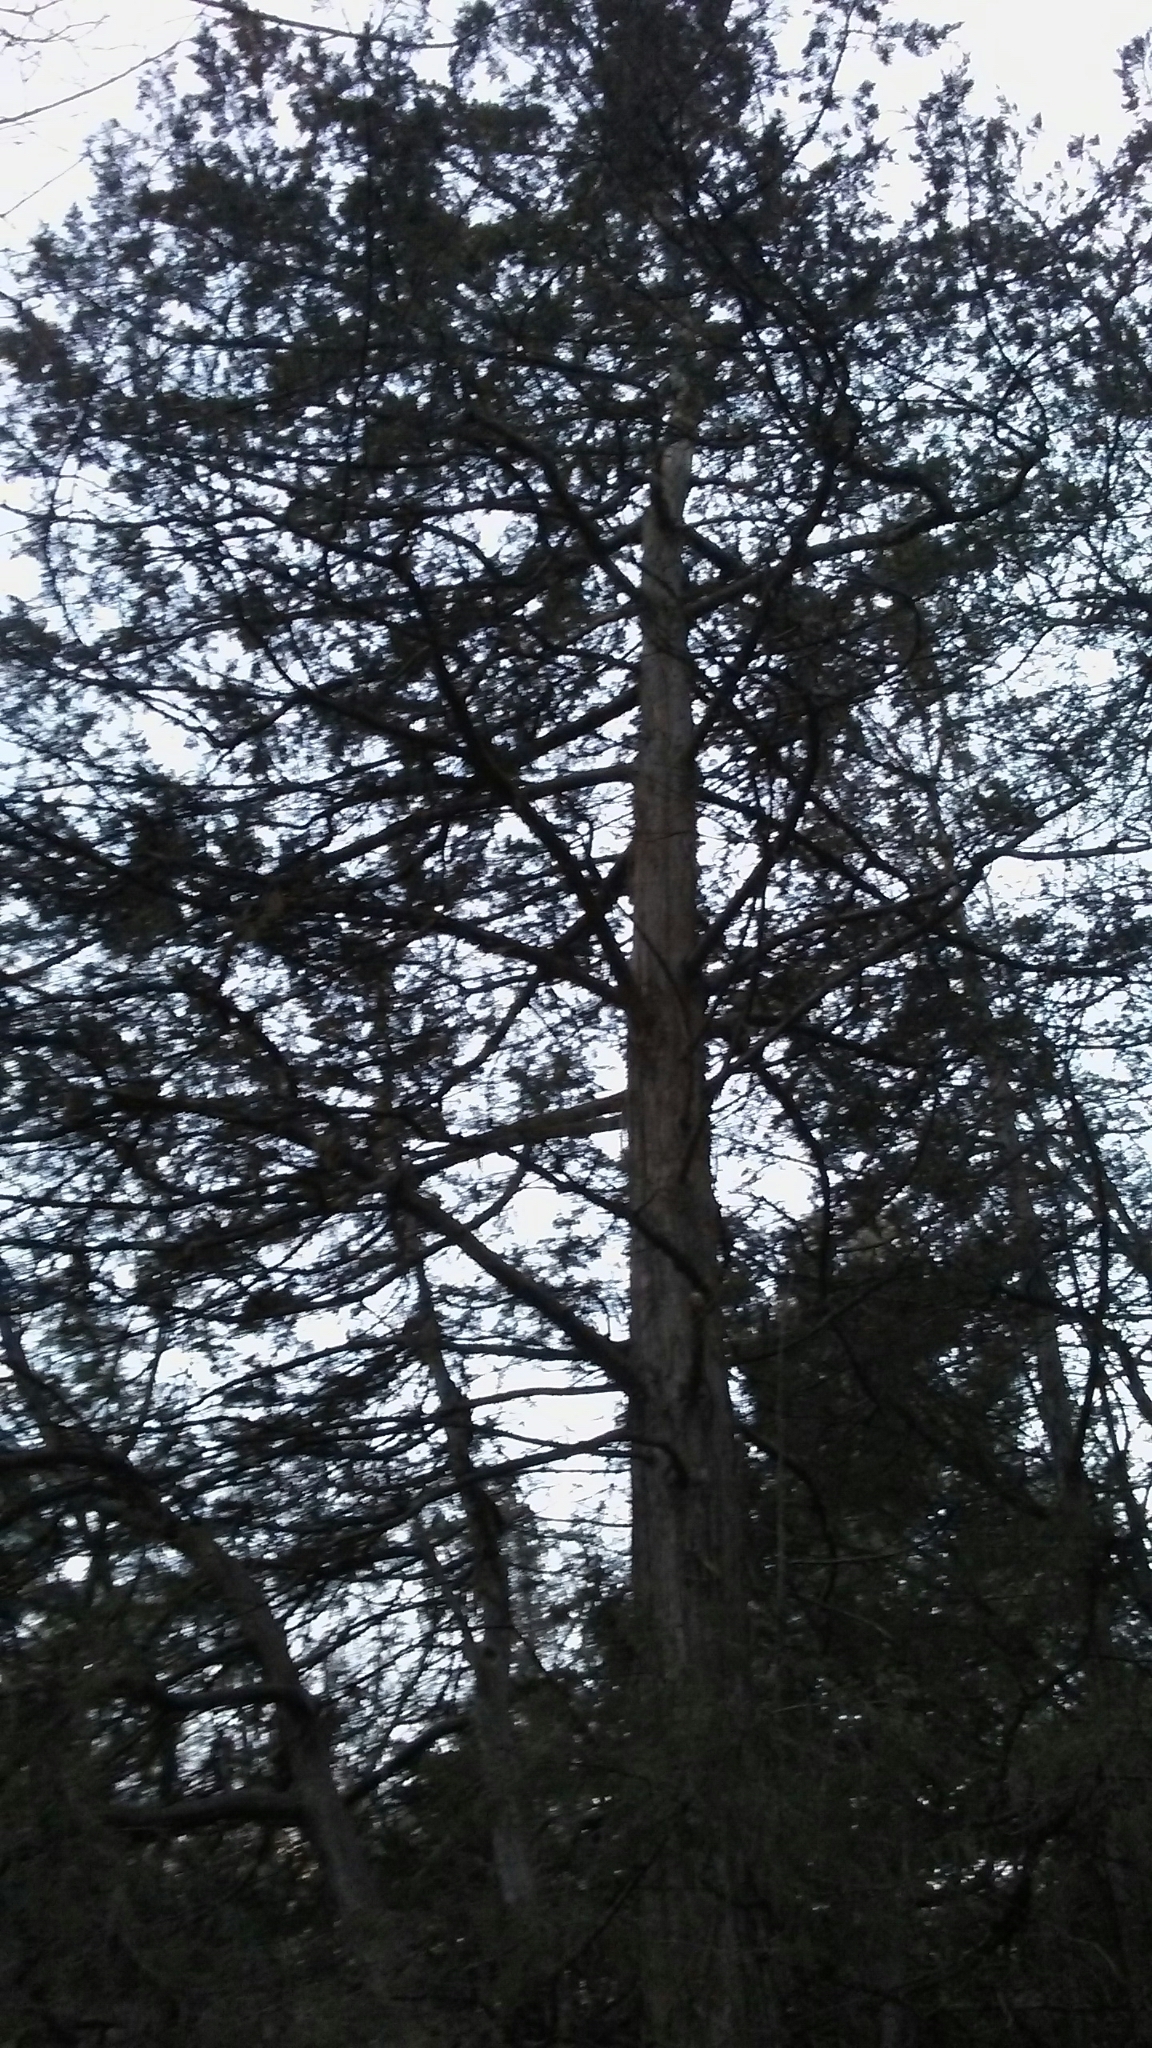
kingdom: Plantae
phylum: Tracheophyta
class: Pinopsida
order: Pinales
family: Cupressaceae
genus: Juniperus
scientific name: Juniperus virginiana
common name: Red juniper
